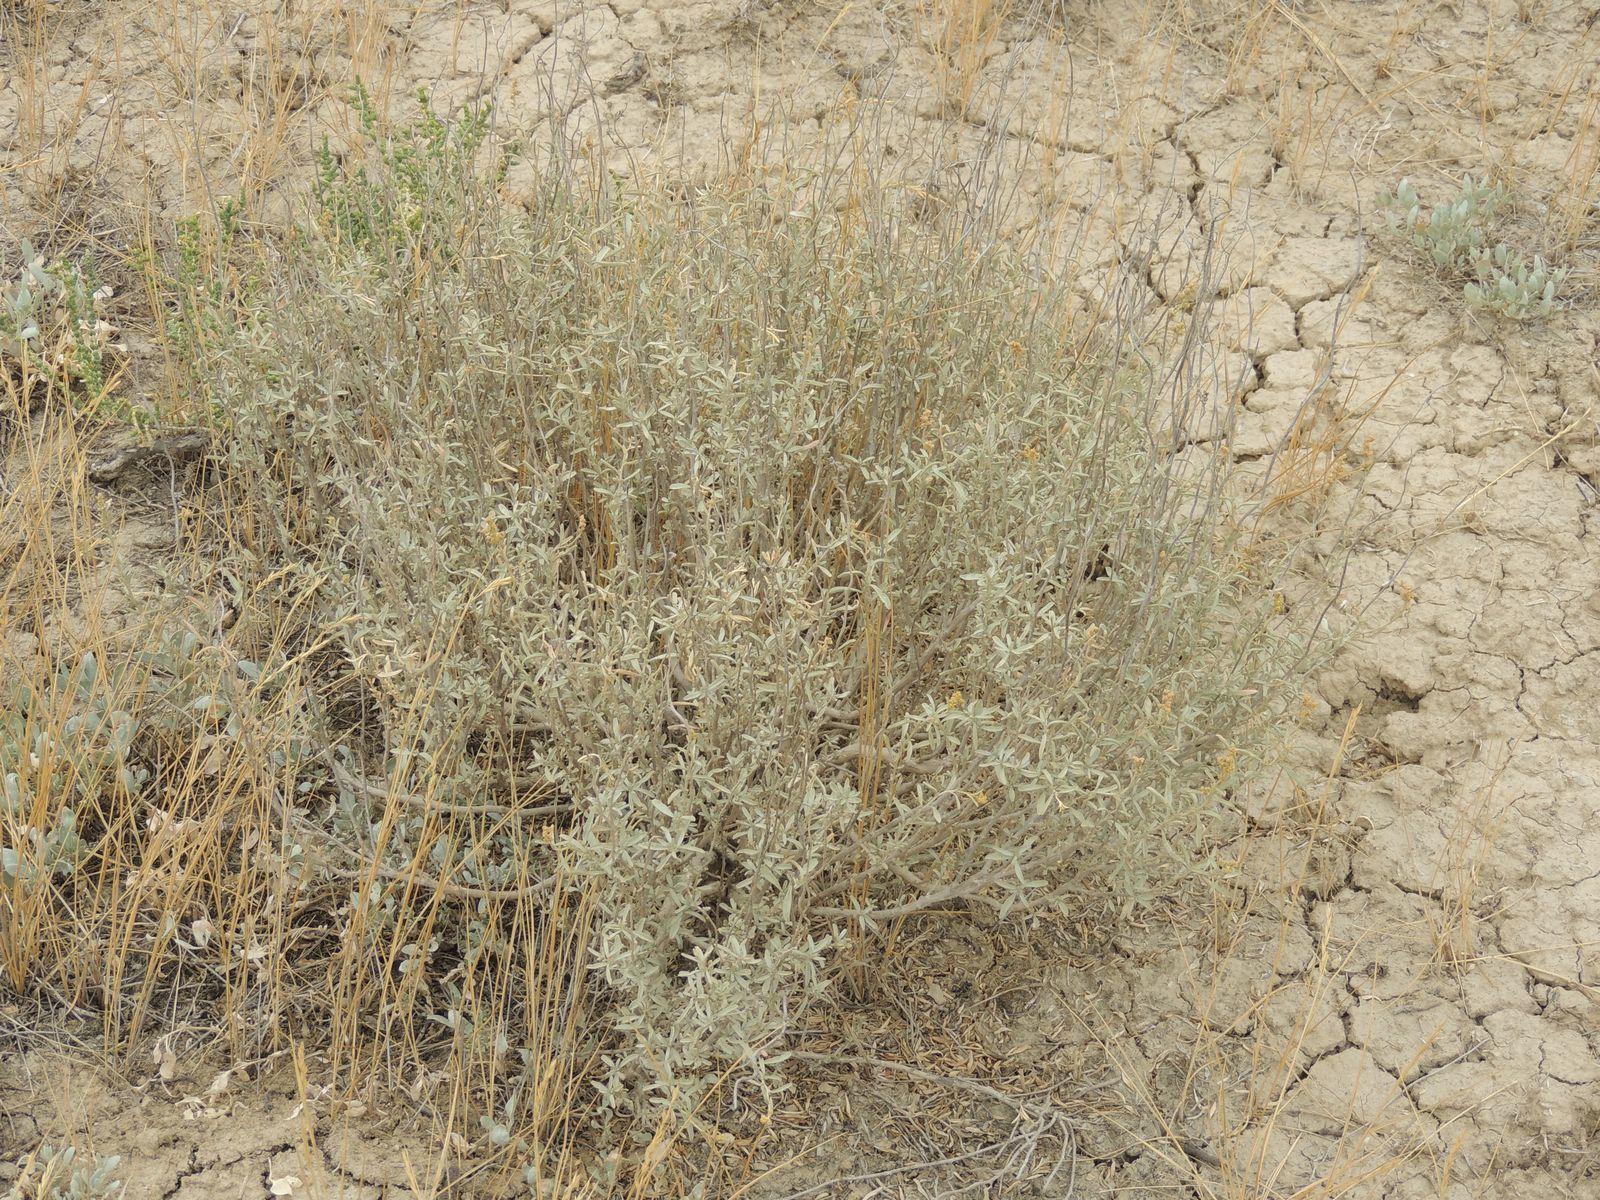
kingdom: Plantae
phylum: Tracheophyta
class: Magnoliopsida
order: Caryophyllales
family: Amaranthaceae
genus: Atriplex
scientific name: Atriplex cana
